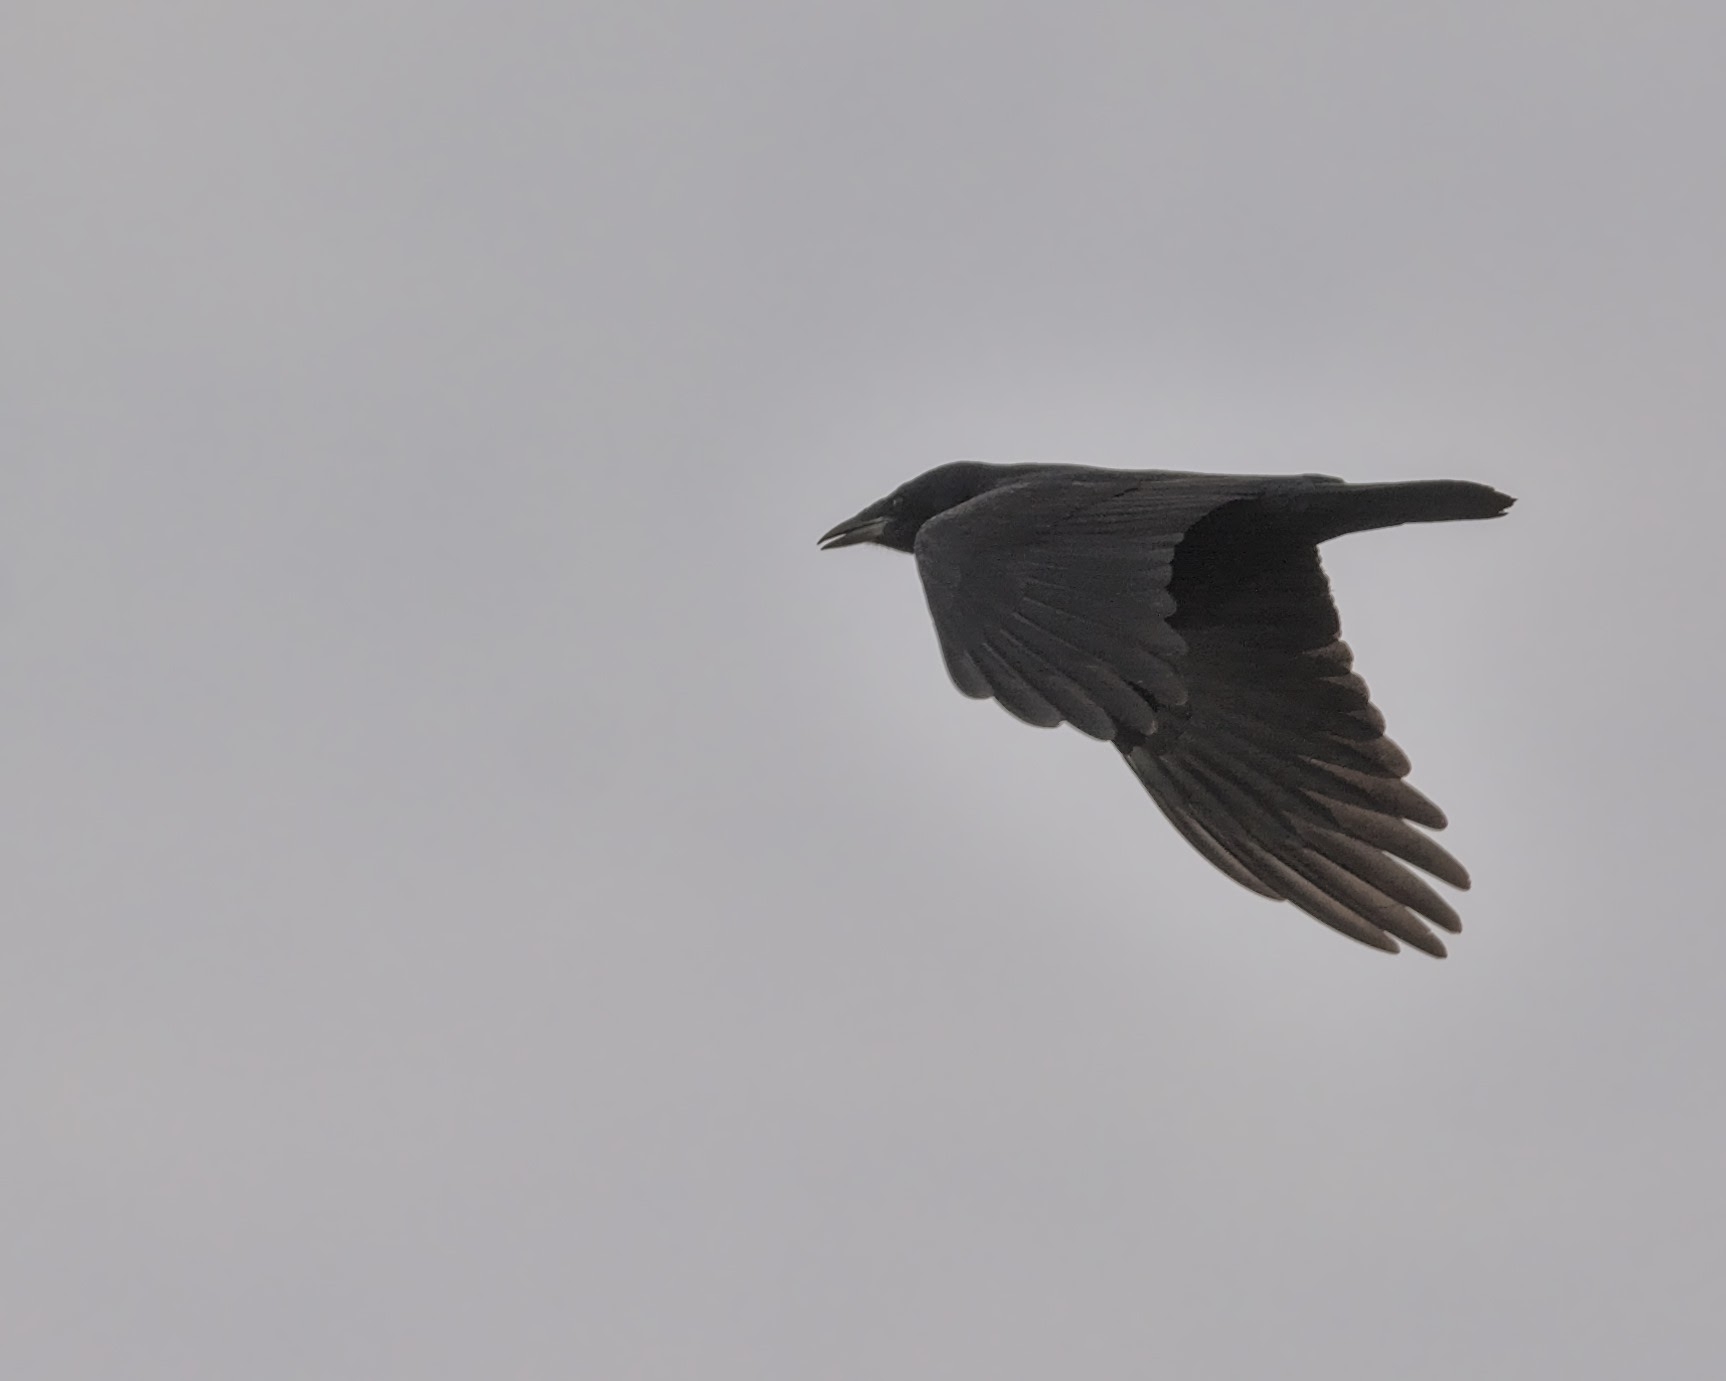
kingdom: Animalia
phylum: Chordata
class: Aves
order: Passeriformes
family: Corvidae
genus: Corvus
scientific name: Corvus corone
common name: Carrion crow
